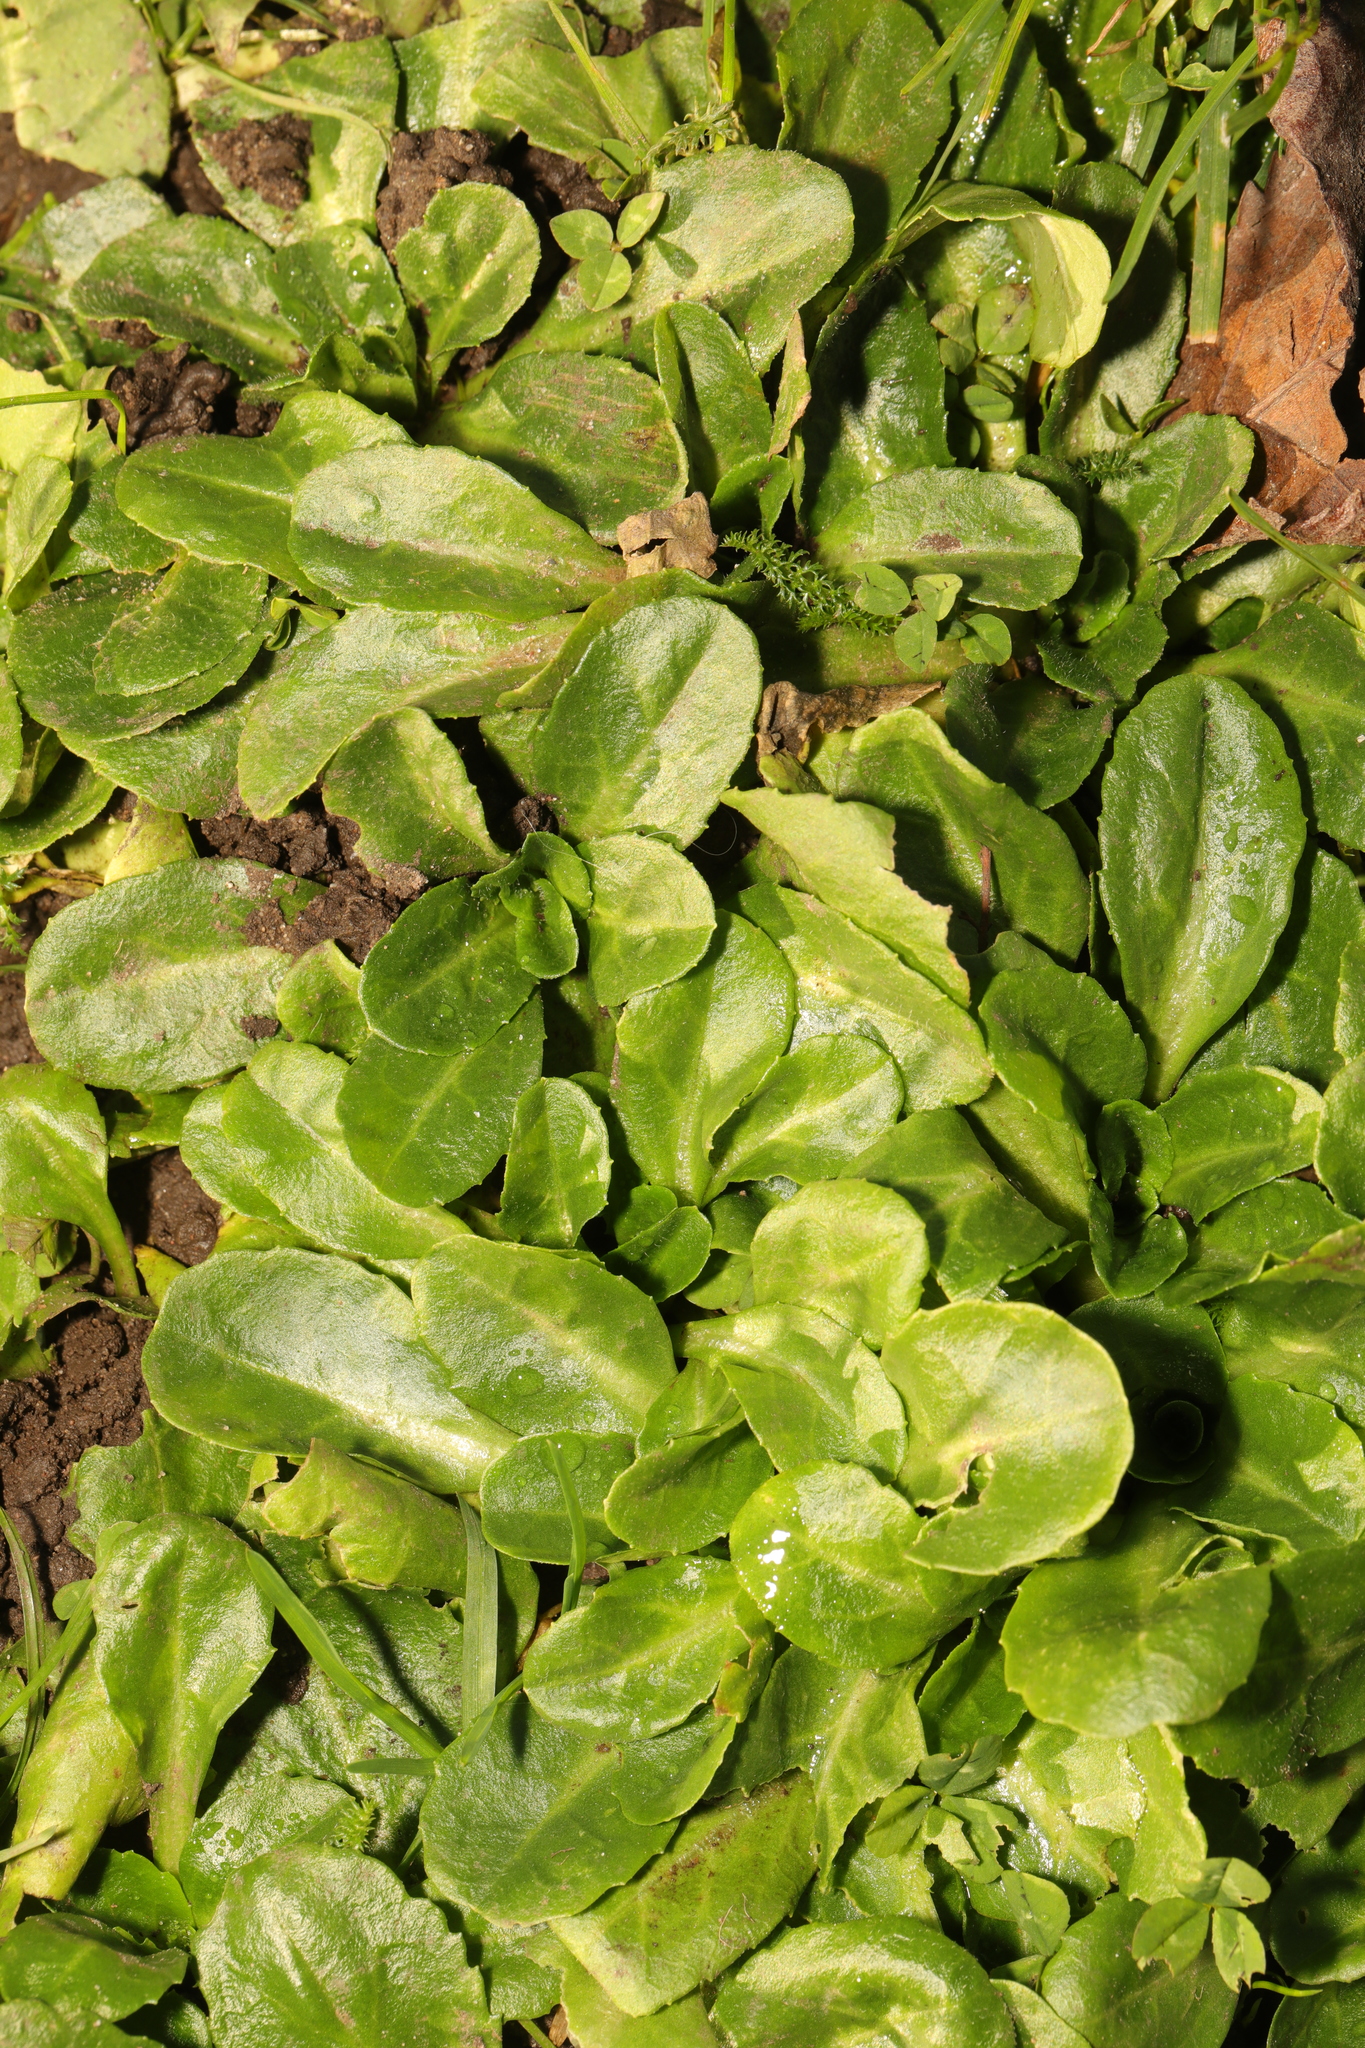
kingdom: Plantae
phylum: Tracheophyta
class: Magnoliopsida
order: Asterales
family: Asteraceae
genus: Bellis
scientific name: Bellis perennis
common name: Lawndaisy
